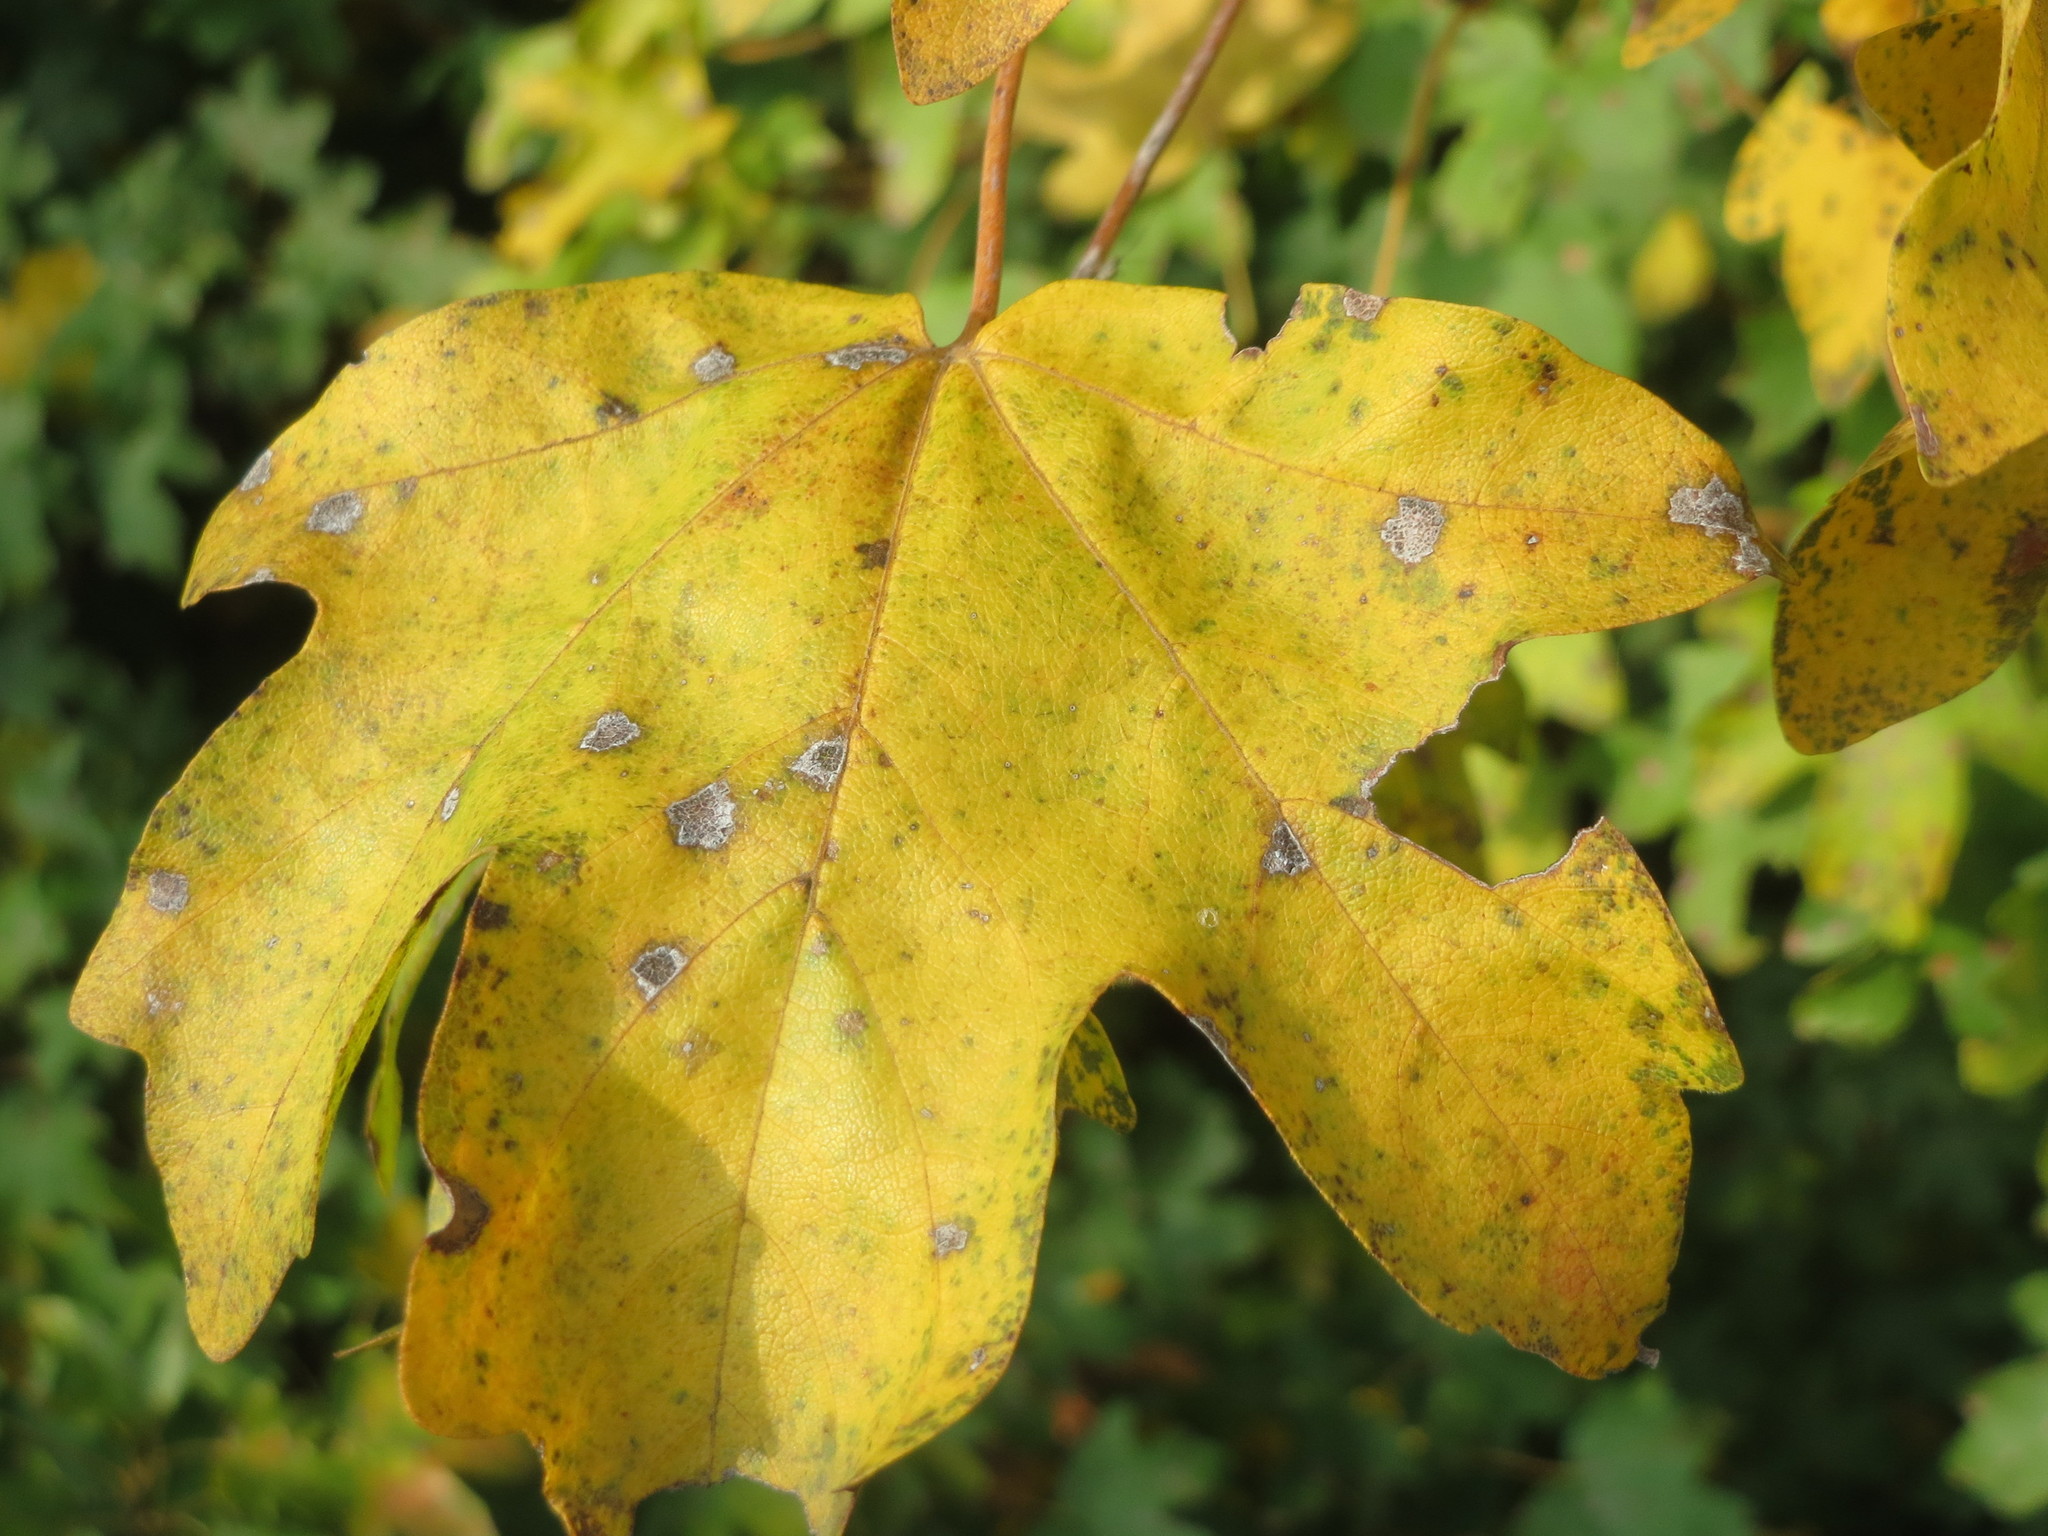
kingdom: Plantae
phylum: Tracheophyta
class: Magnoliopsida
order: Sapindales
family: Sapindaceae
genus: Acer
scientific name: Acer campestre
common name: Field maple
